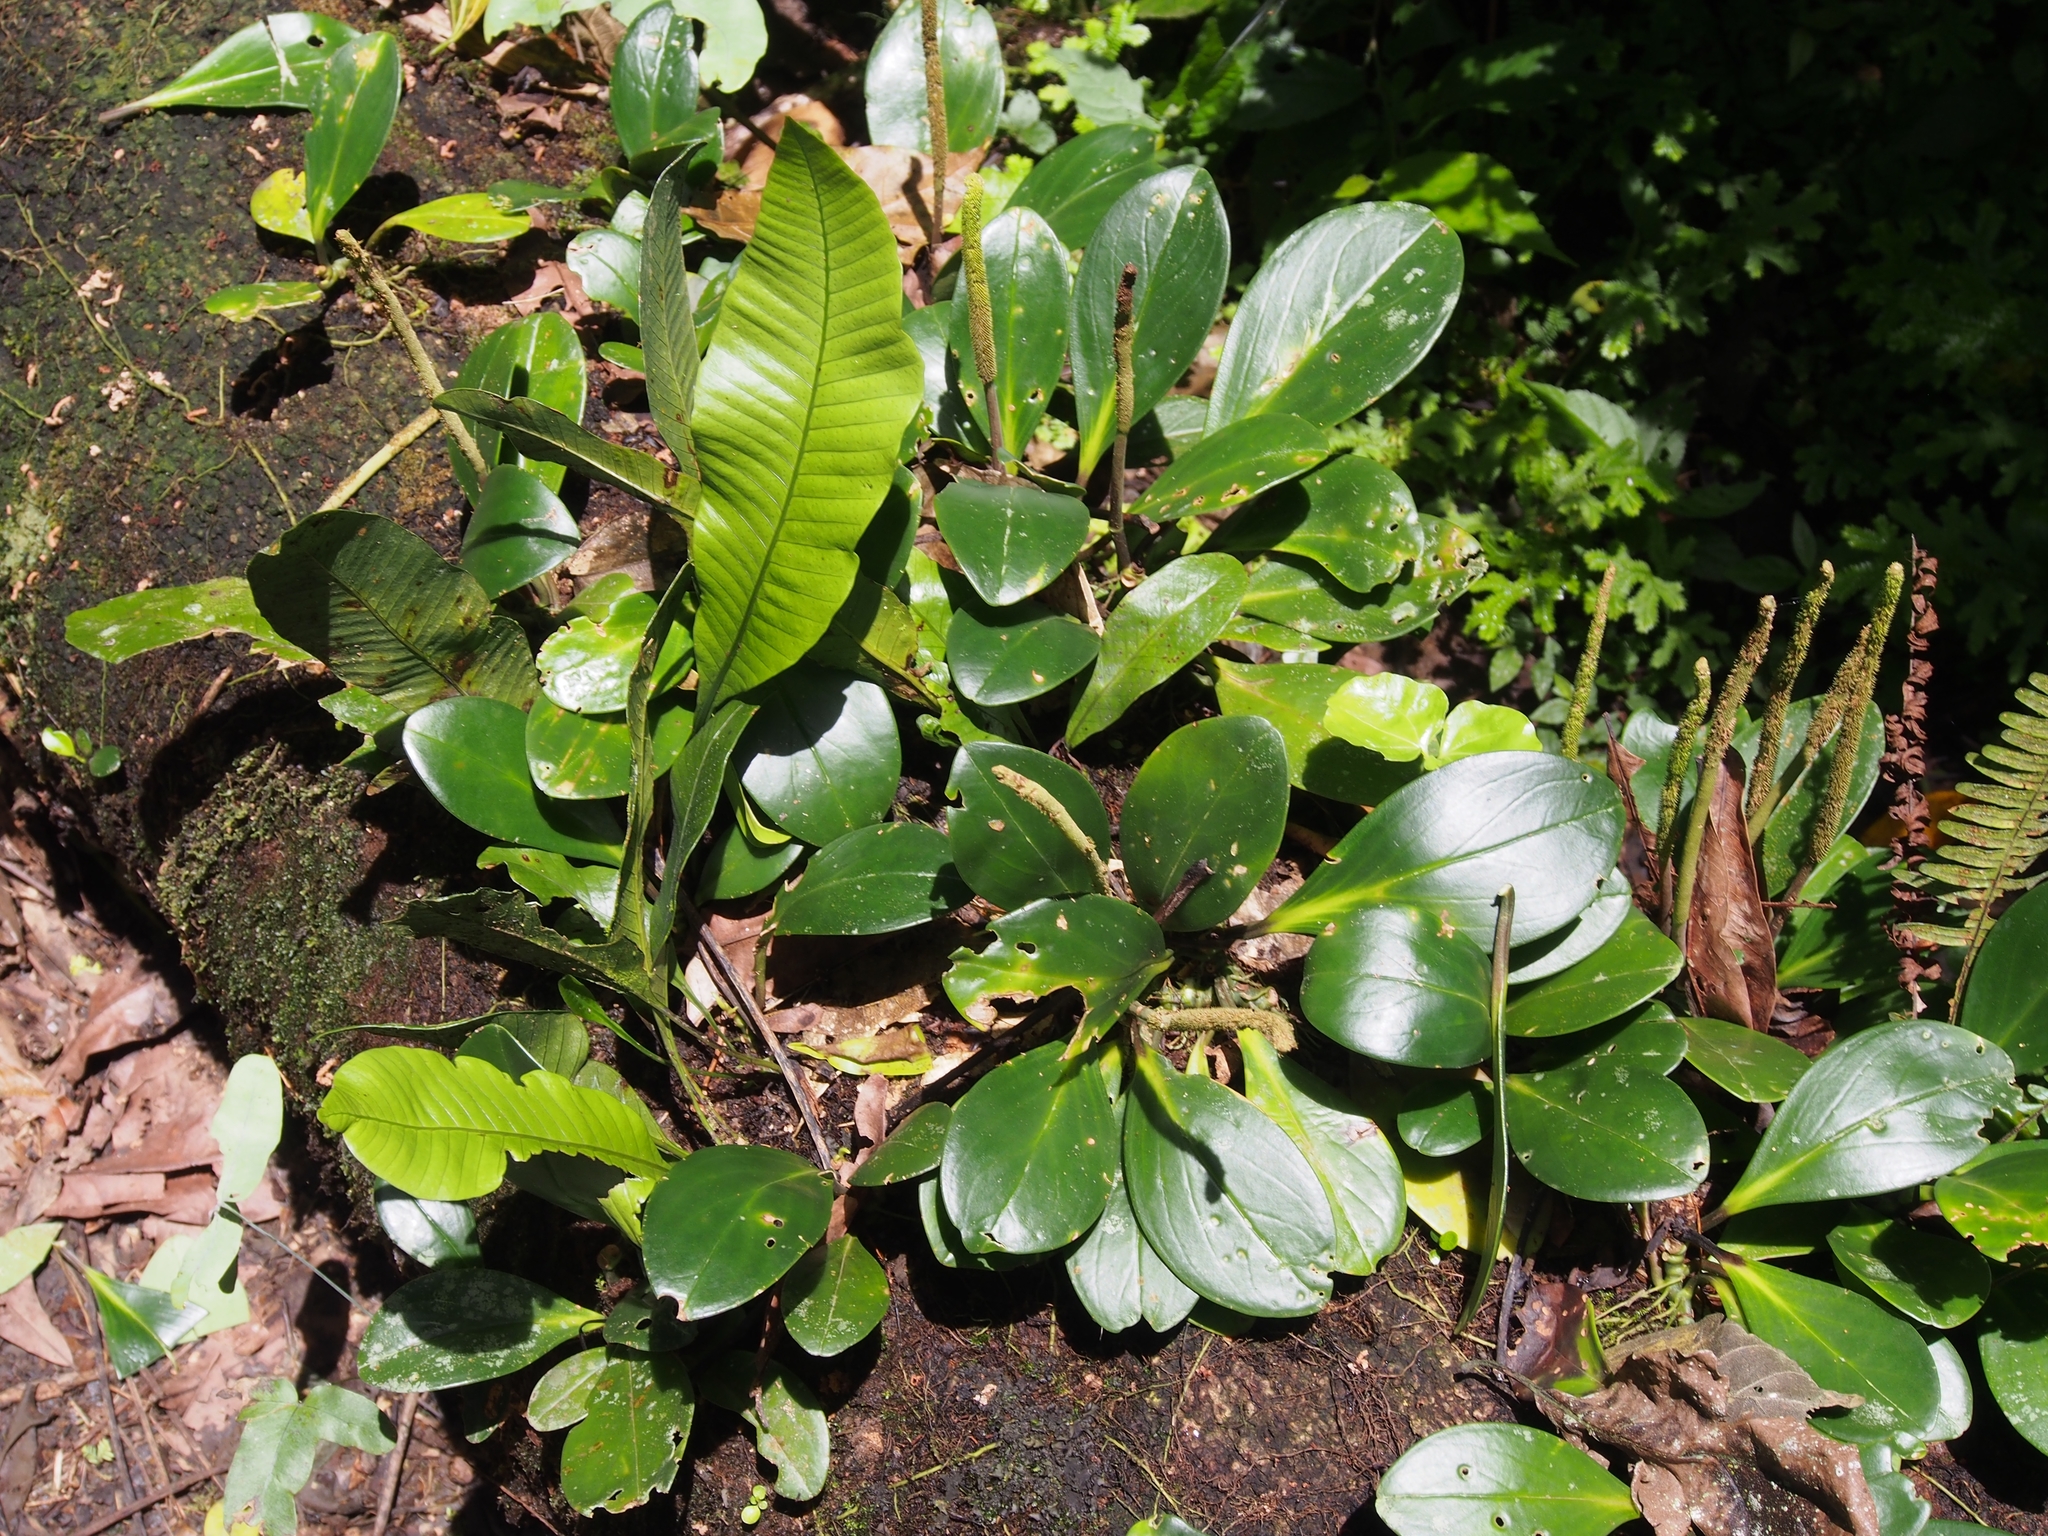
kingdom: Plantae
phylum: Tracheophyta
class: Magnoliopsida
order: Piperales
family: Piperaceae
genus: Peperomia
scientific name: Peperomia obtusifolia
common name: Baby rubberplant
